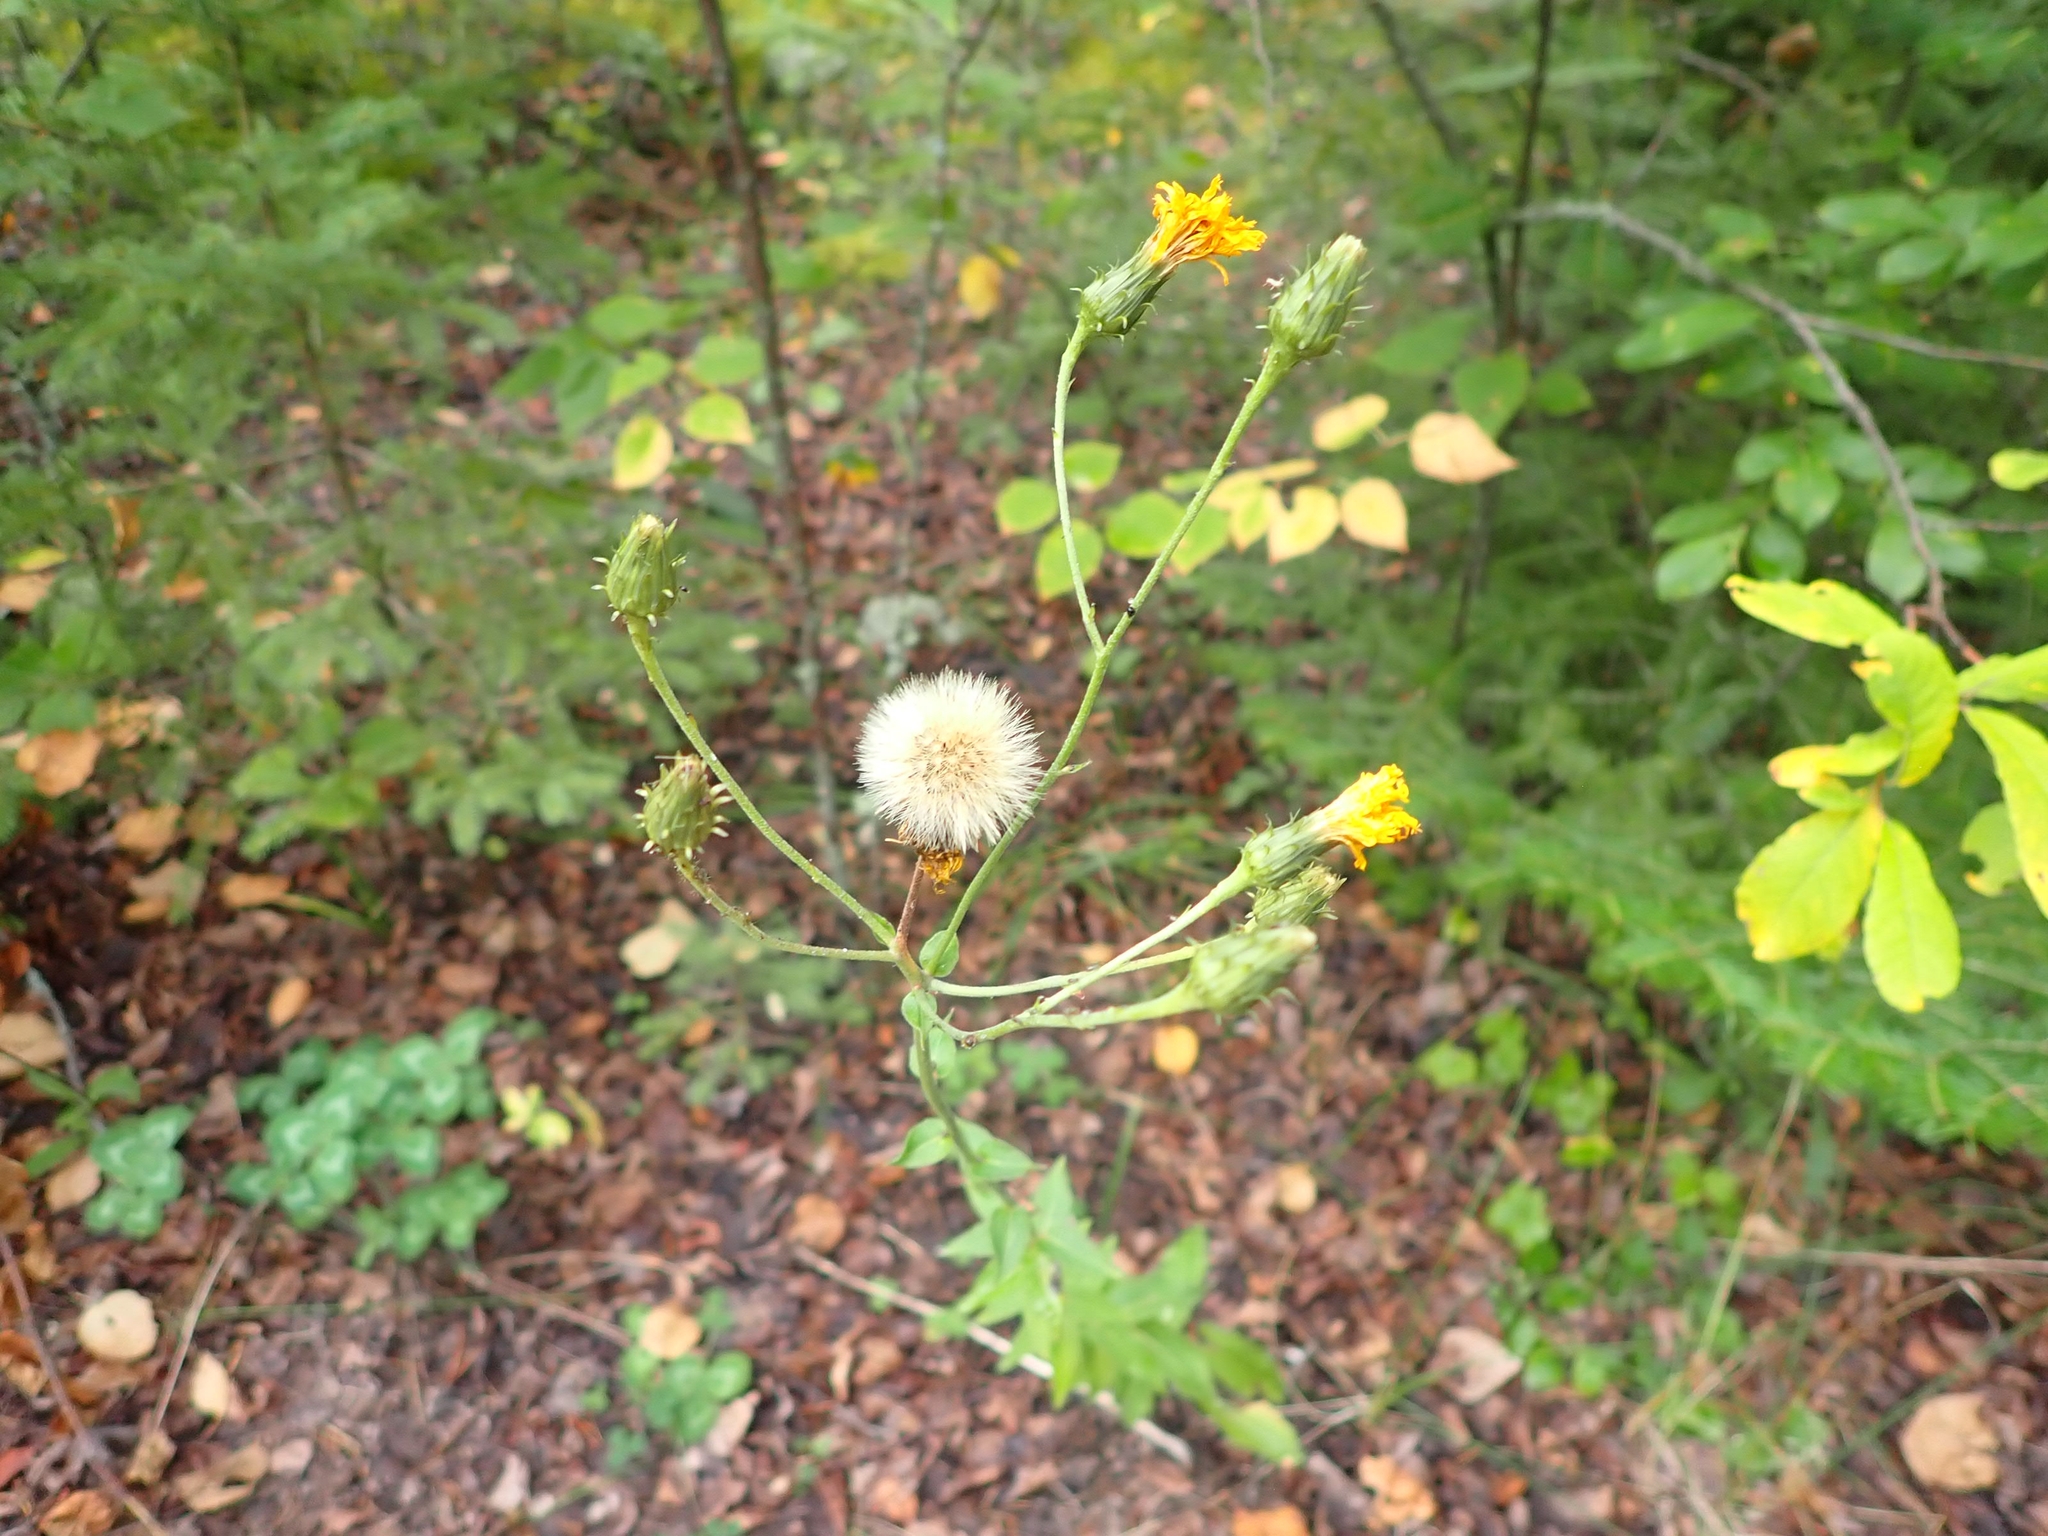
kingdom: Plantae
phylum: Tracheophyta
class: Magnoliopsida
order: Asterales
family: Asteraceae
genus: Hieracium
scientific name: Hieracium umbellatum
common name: Northern hawkweed
